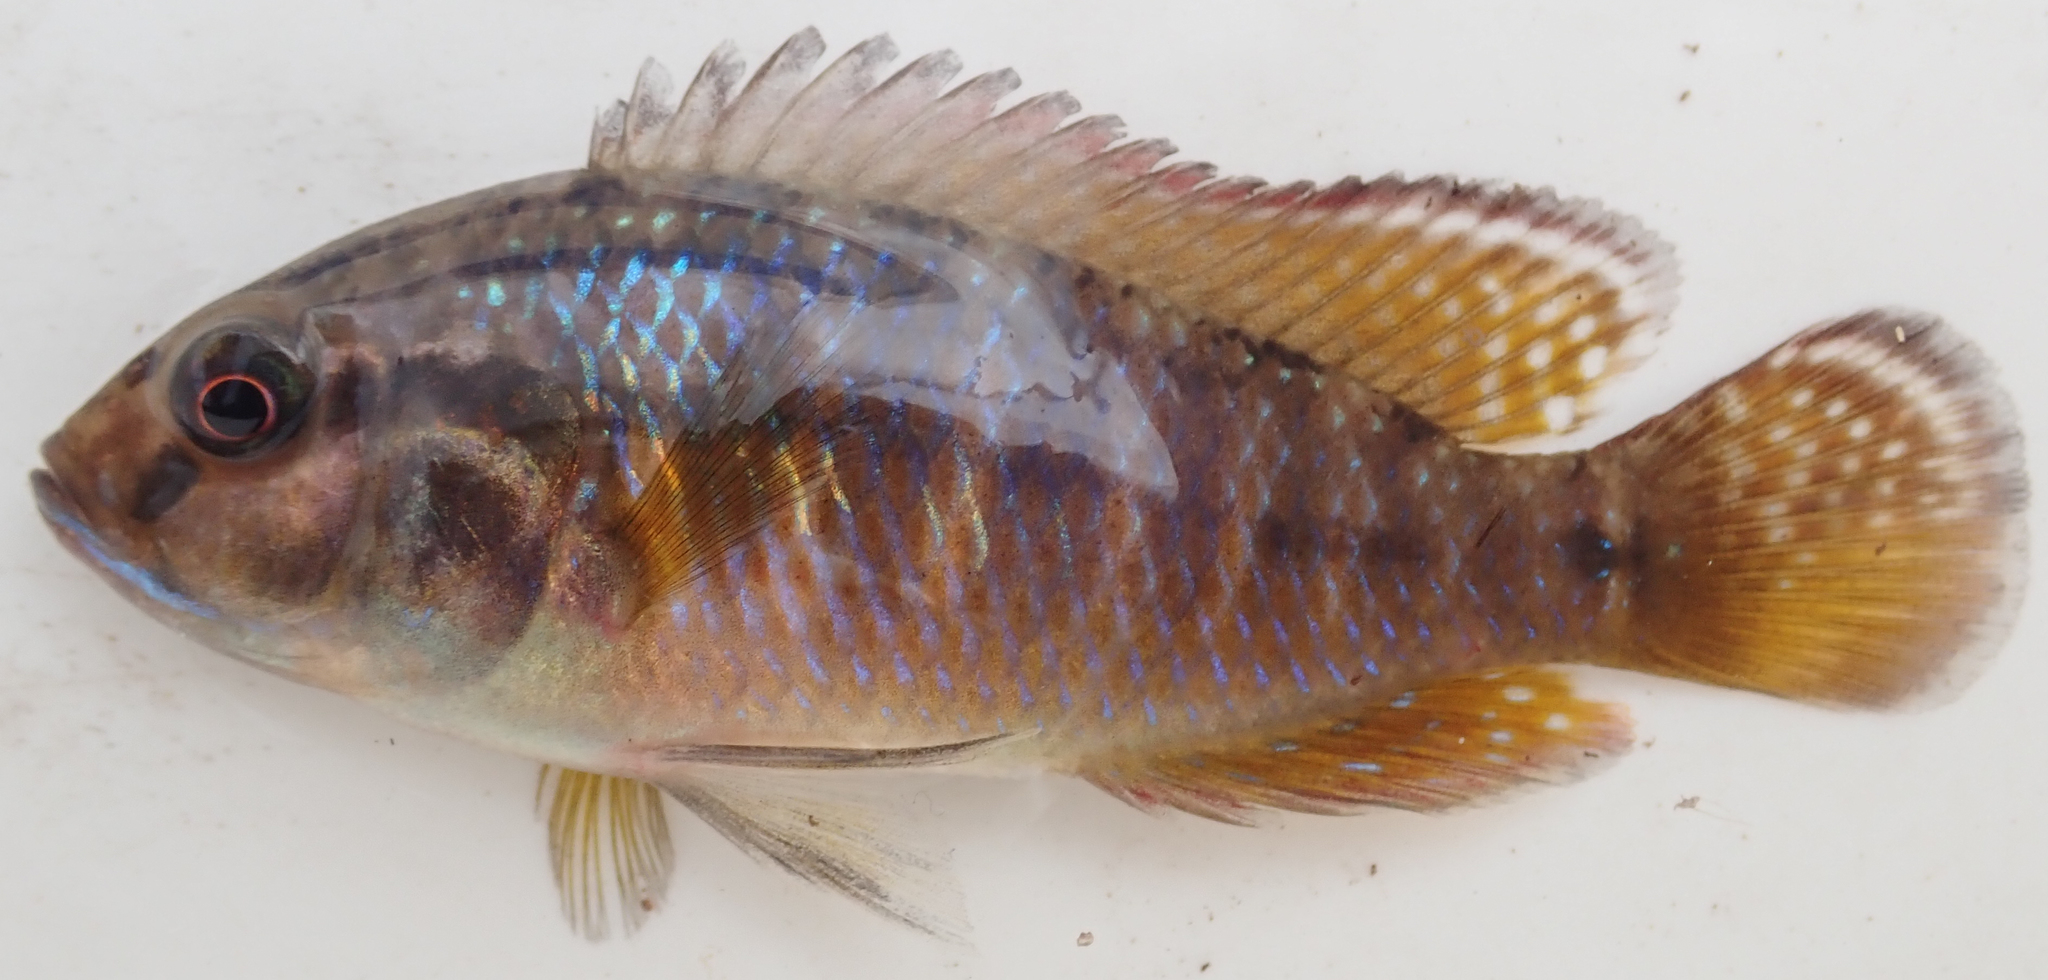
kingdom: Animalia
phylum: Chordata
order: Perciformes
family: Cichlidae
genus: Pseudocrenilabrus
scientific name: Pseudocrenilabrus philander
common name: Southern mouthbrooder
